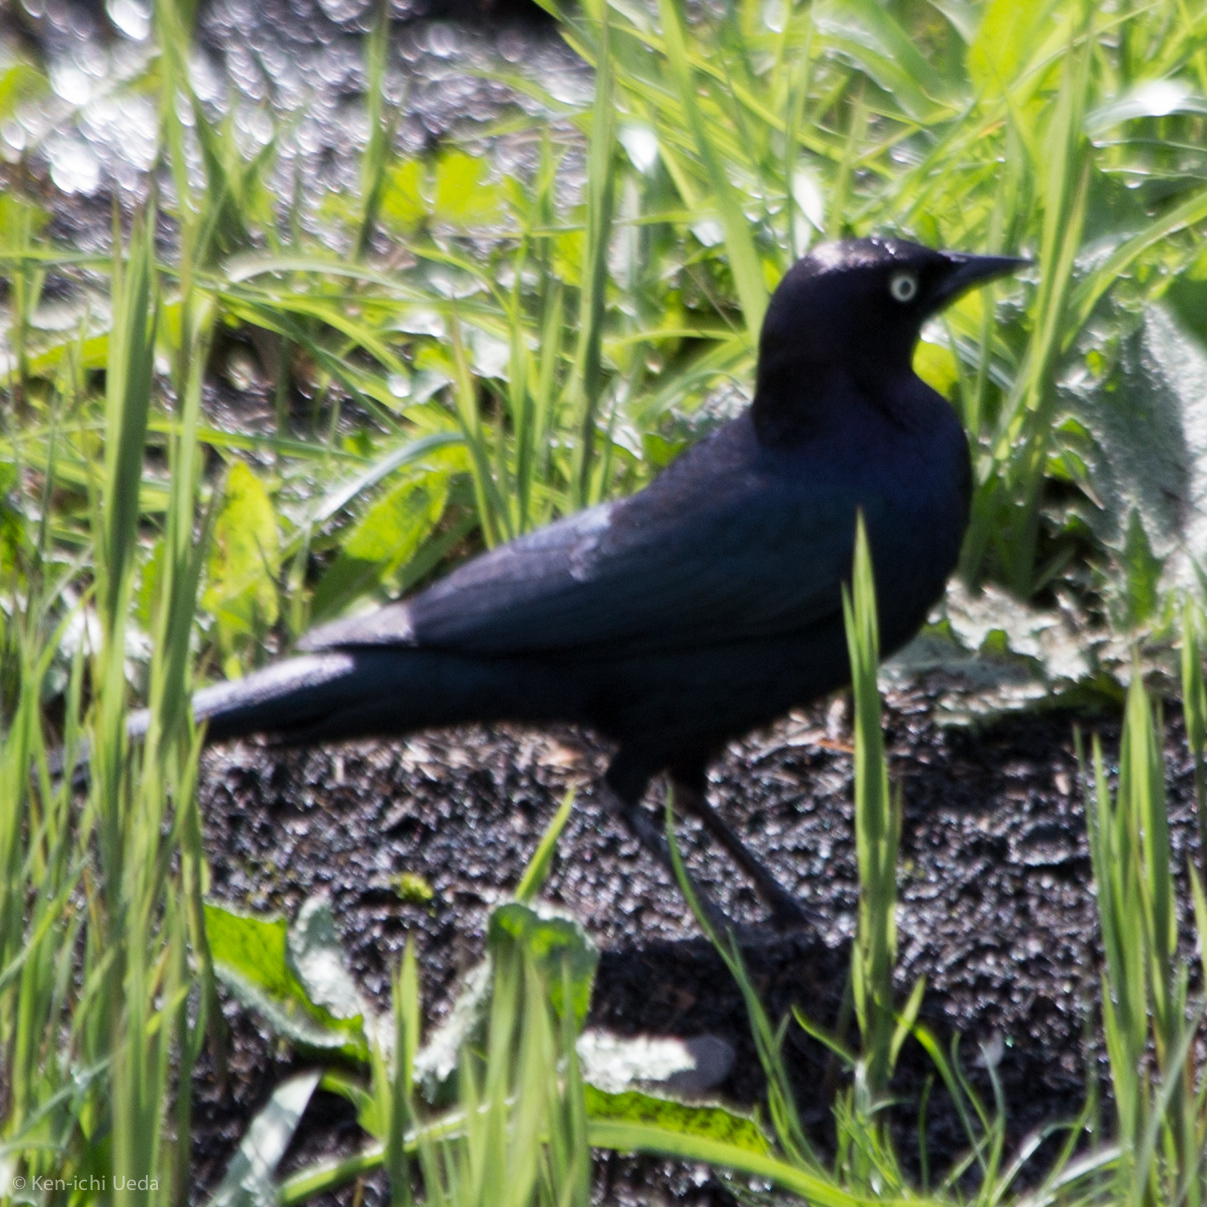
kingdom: Animalia
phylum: Chordata
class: Aves
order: Passeriformes
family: Icteridae
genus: Euphagus
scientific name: Euphagus cyanocephalus
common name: Brewer's blackbird
